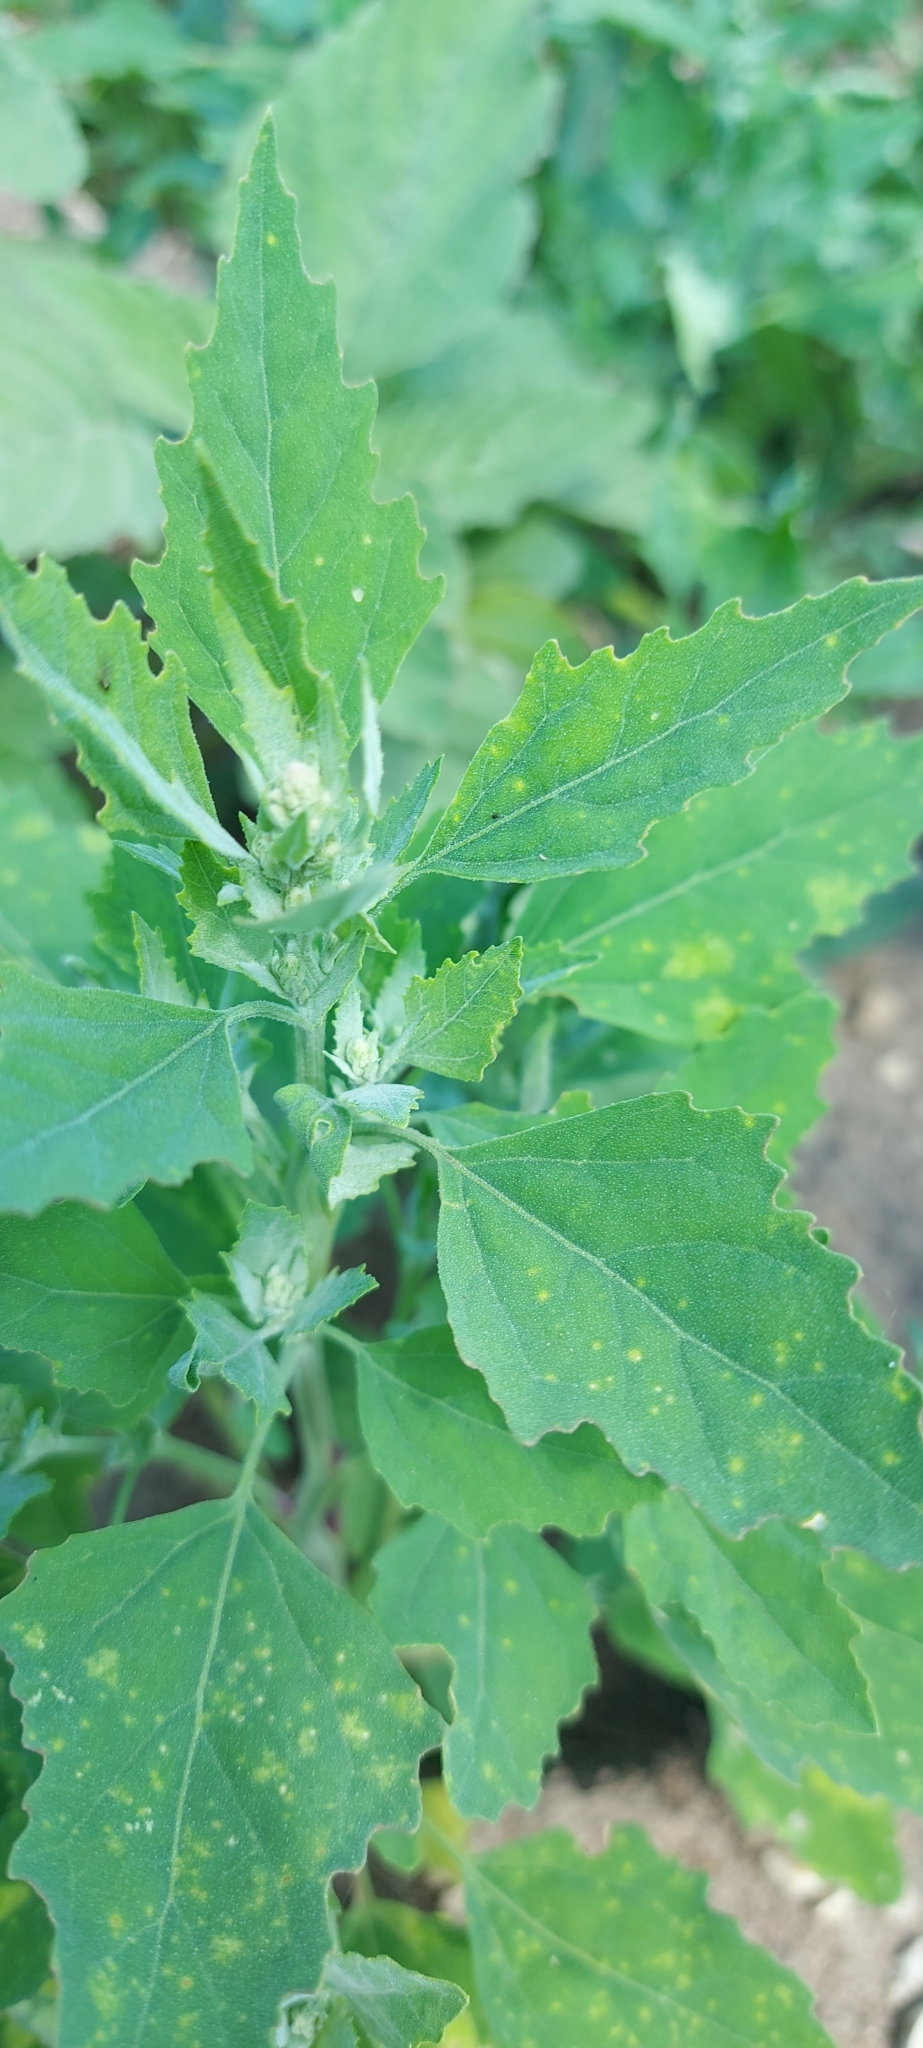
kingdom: Plantae
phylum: Tracheophyta
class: Magnoliopsida
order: Caryophyllales
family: Amaranthaceae
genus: Chenopodium
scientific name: Chenopodium album
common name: Fat-hen
